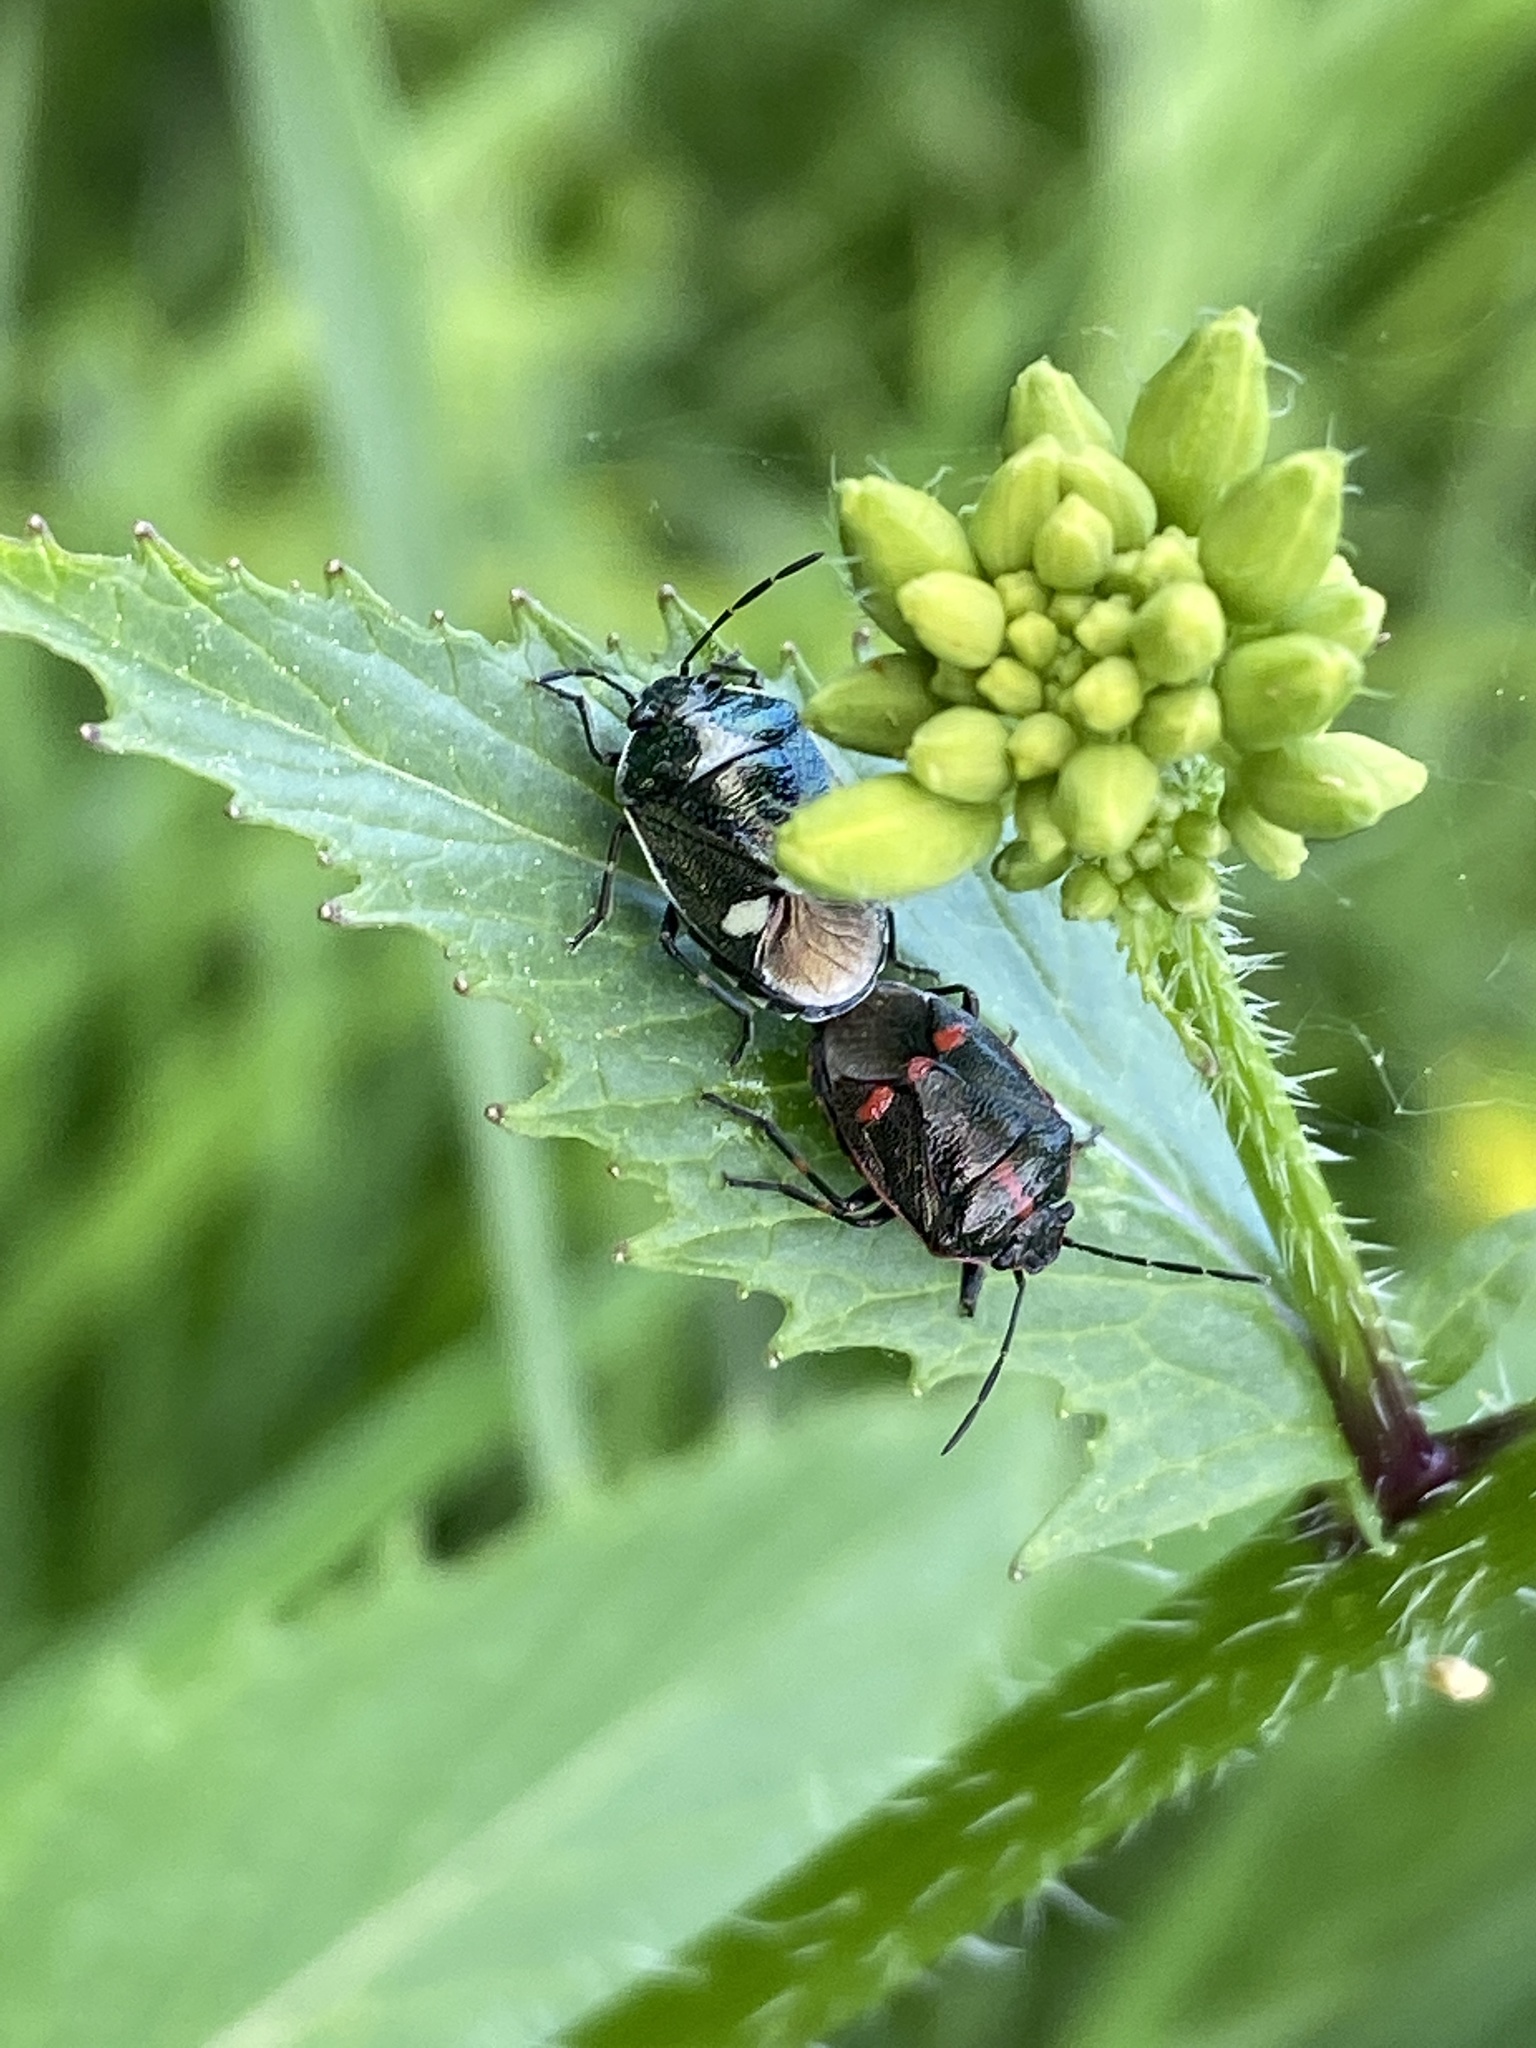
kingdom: Animalia
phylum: Arthropoda
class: Insecta
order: Hemiptera
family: Pentatomidae
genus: Eurydema
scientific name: Eurydema oleracea
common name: Cabbage bug
